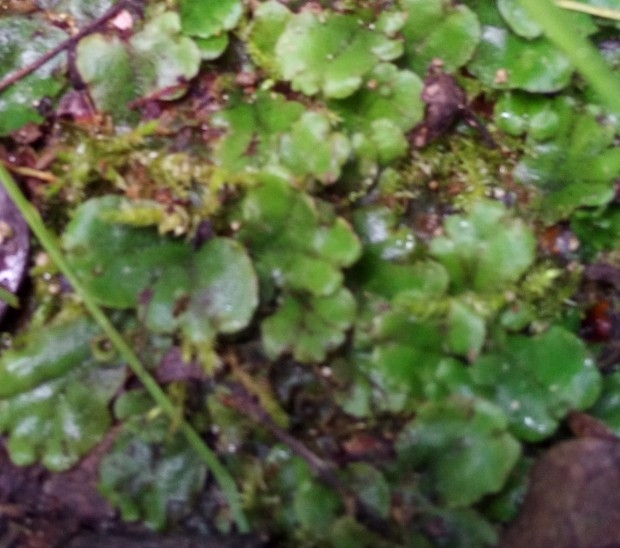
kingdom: Plantae
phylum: Marchantiophyta
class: Marchantiopsida
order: Marchantiales
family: Marchantiaceae
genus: Marchantia
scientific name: Marchantia polymorpha
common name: Common liverwort
